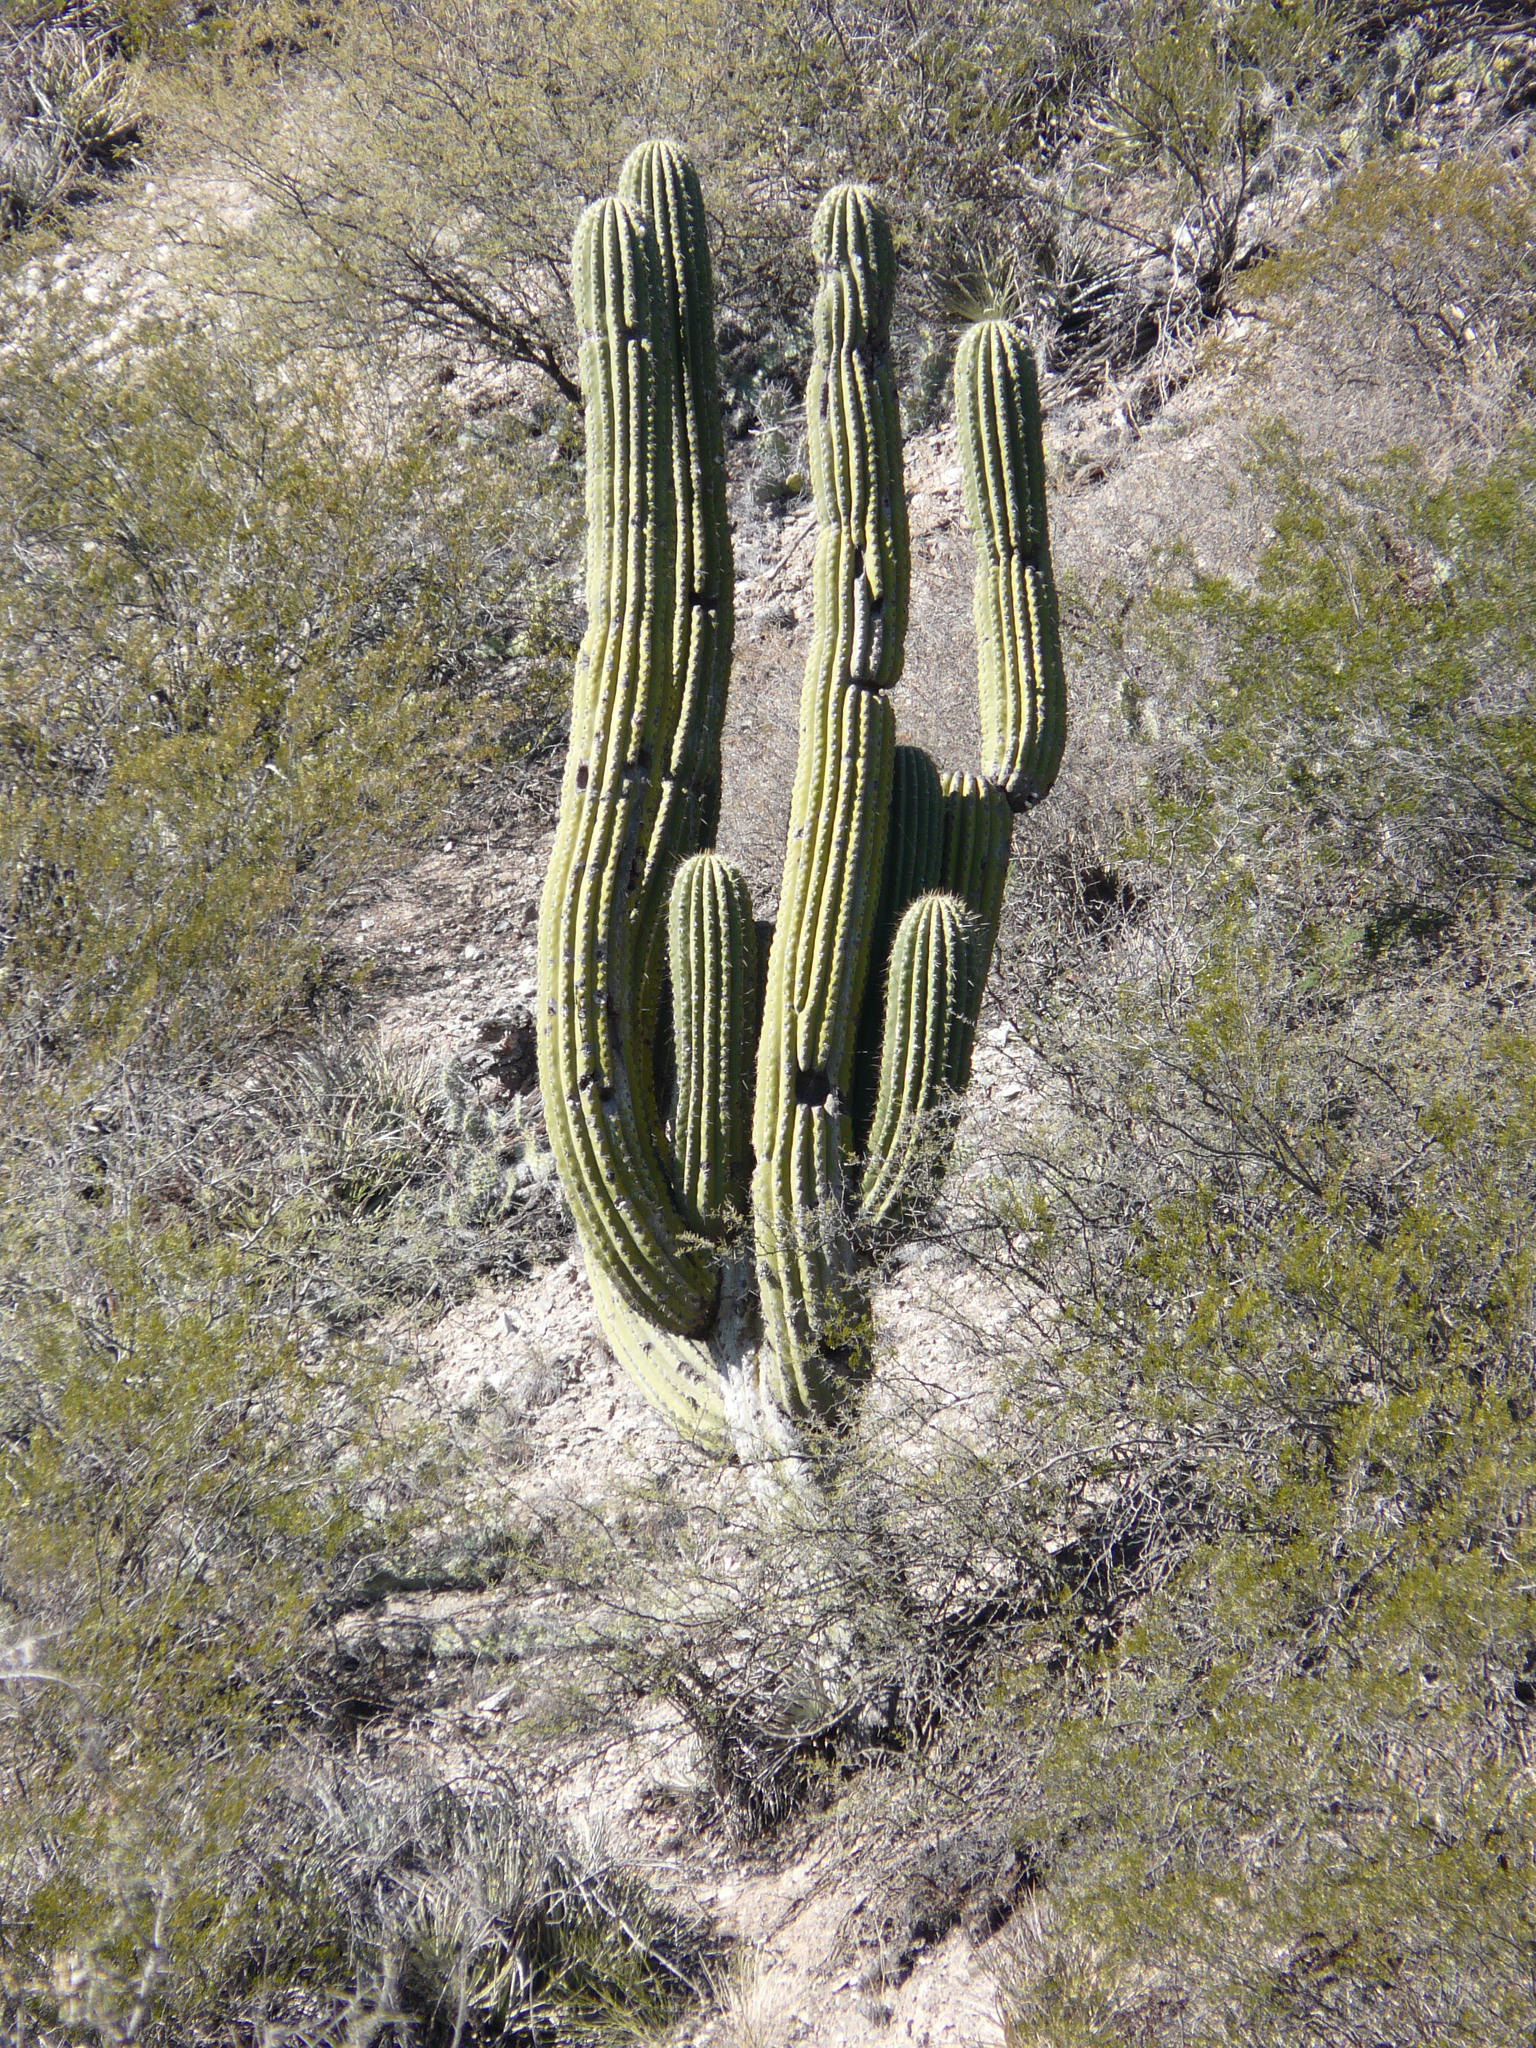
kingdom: Plantae
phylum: Tracheophyta
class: Magnoliopsida
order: Caryophyllales
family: Cactaceae
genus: Leucostele
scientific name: Leucostele terscheckii
